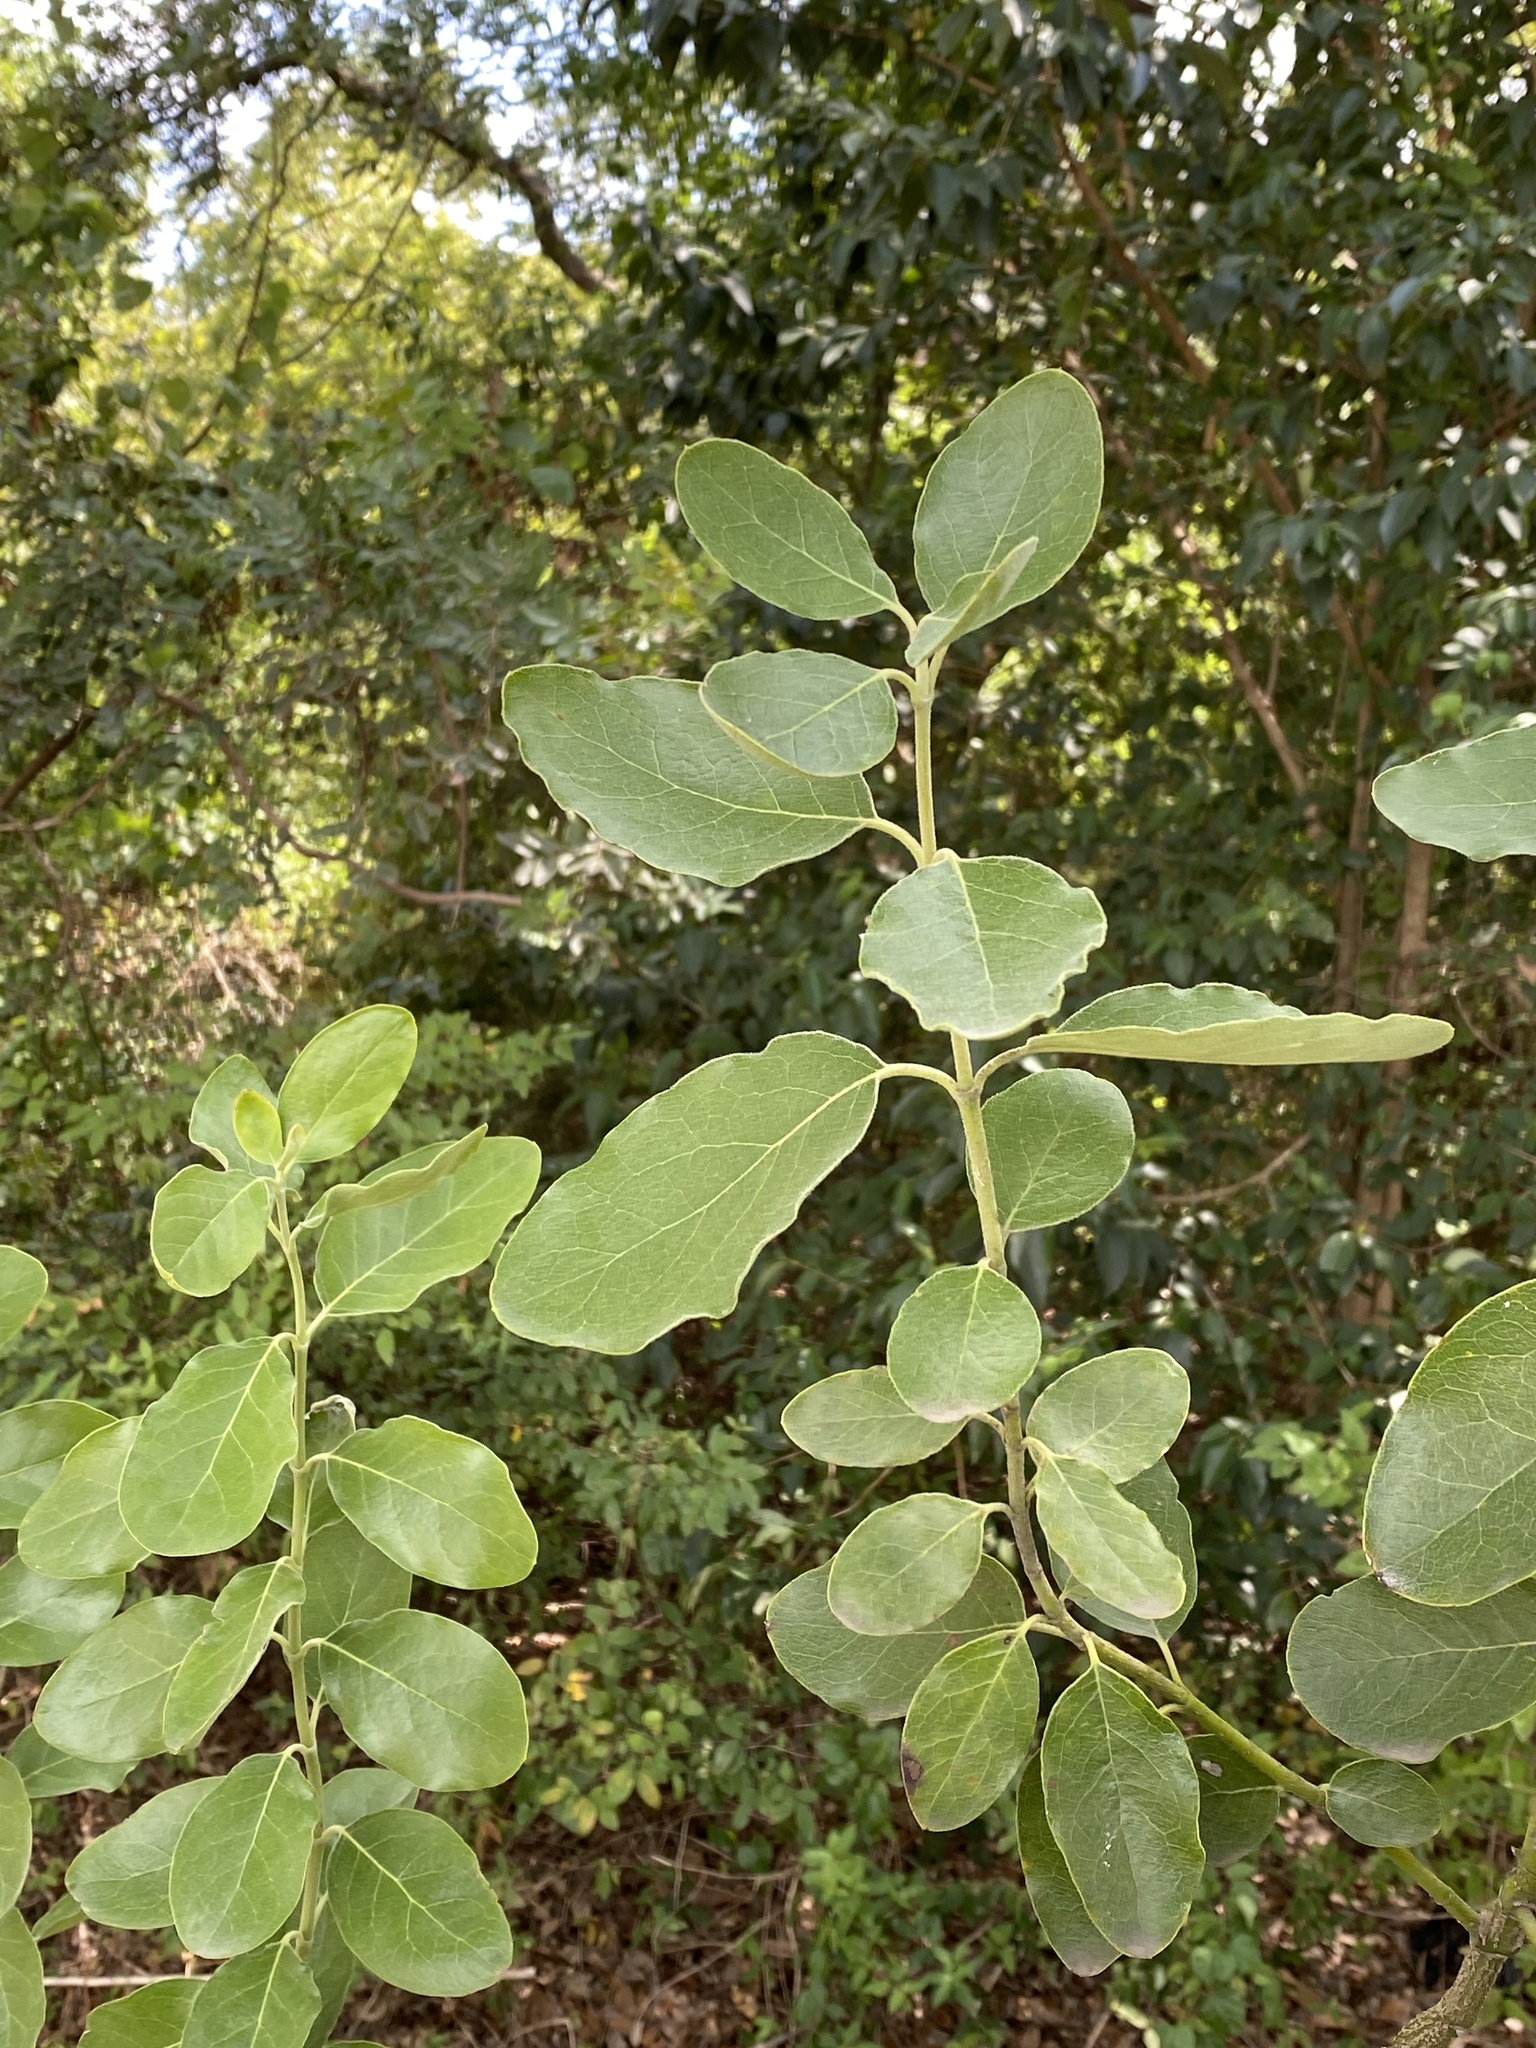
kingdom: Plantae
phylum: Tracheophyta
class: Magnoliopsida
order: Garryales
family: Garryaceae
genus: Garrya
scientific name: Garrya lindheimeri
